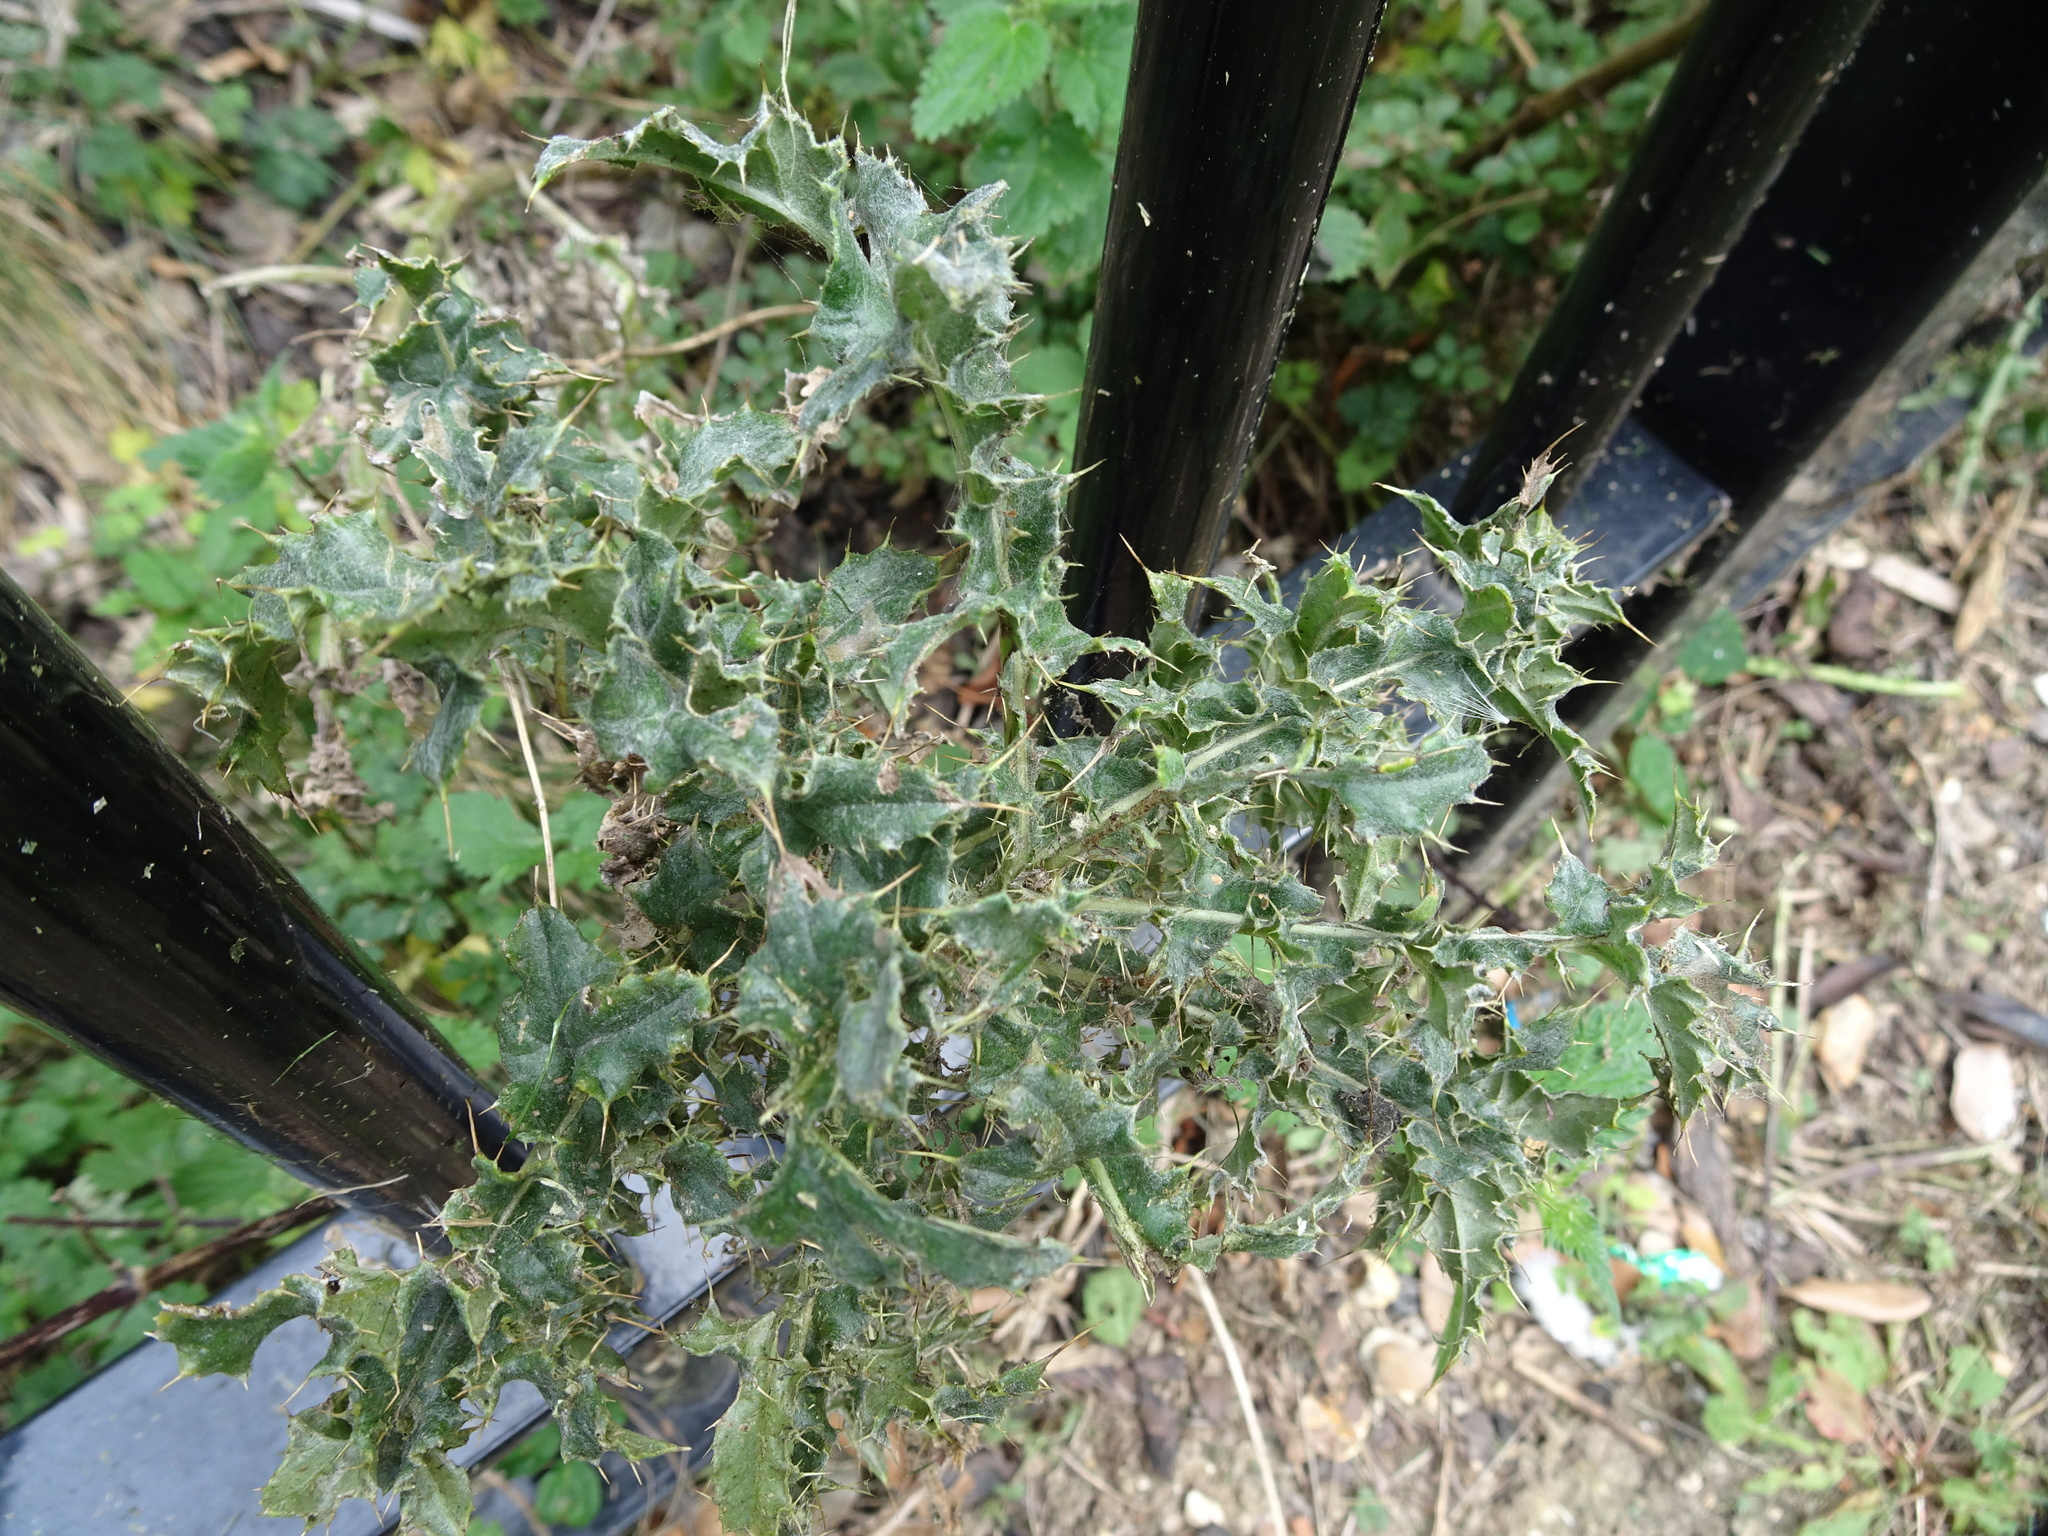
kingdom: Plantae
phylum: Tracheophyta
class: Magnoliopsida
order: Asterales
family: Asteraceae
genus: Cirsium
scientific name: Cirsium arvense
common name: Creeping thistle
